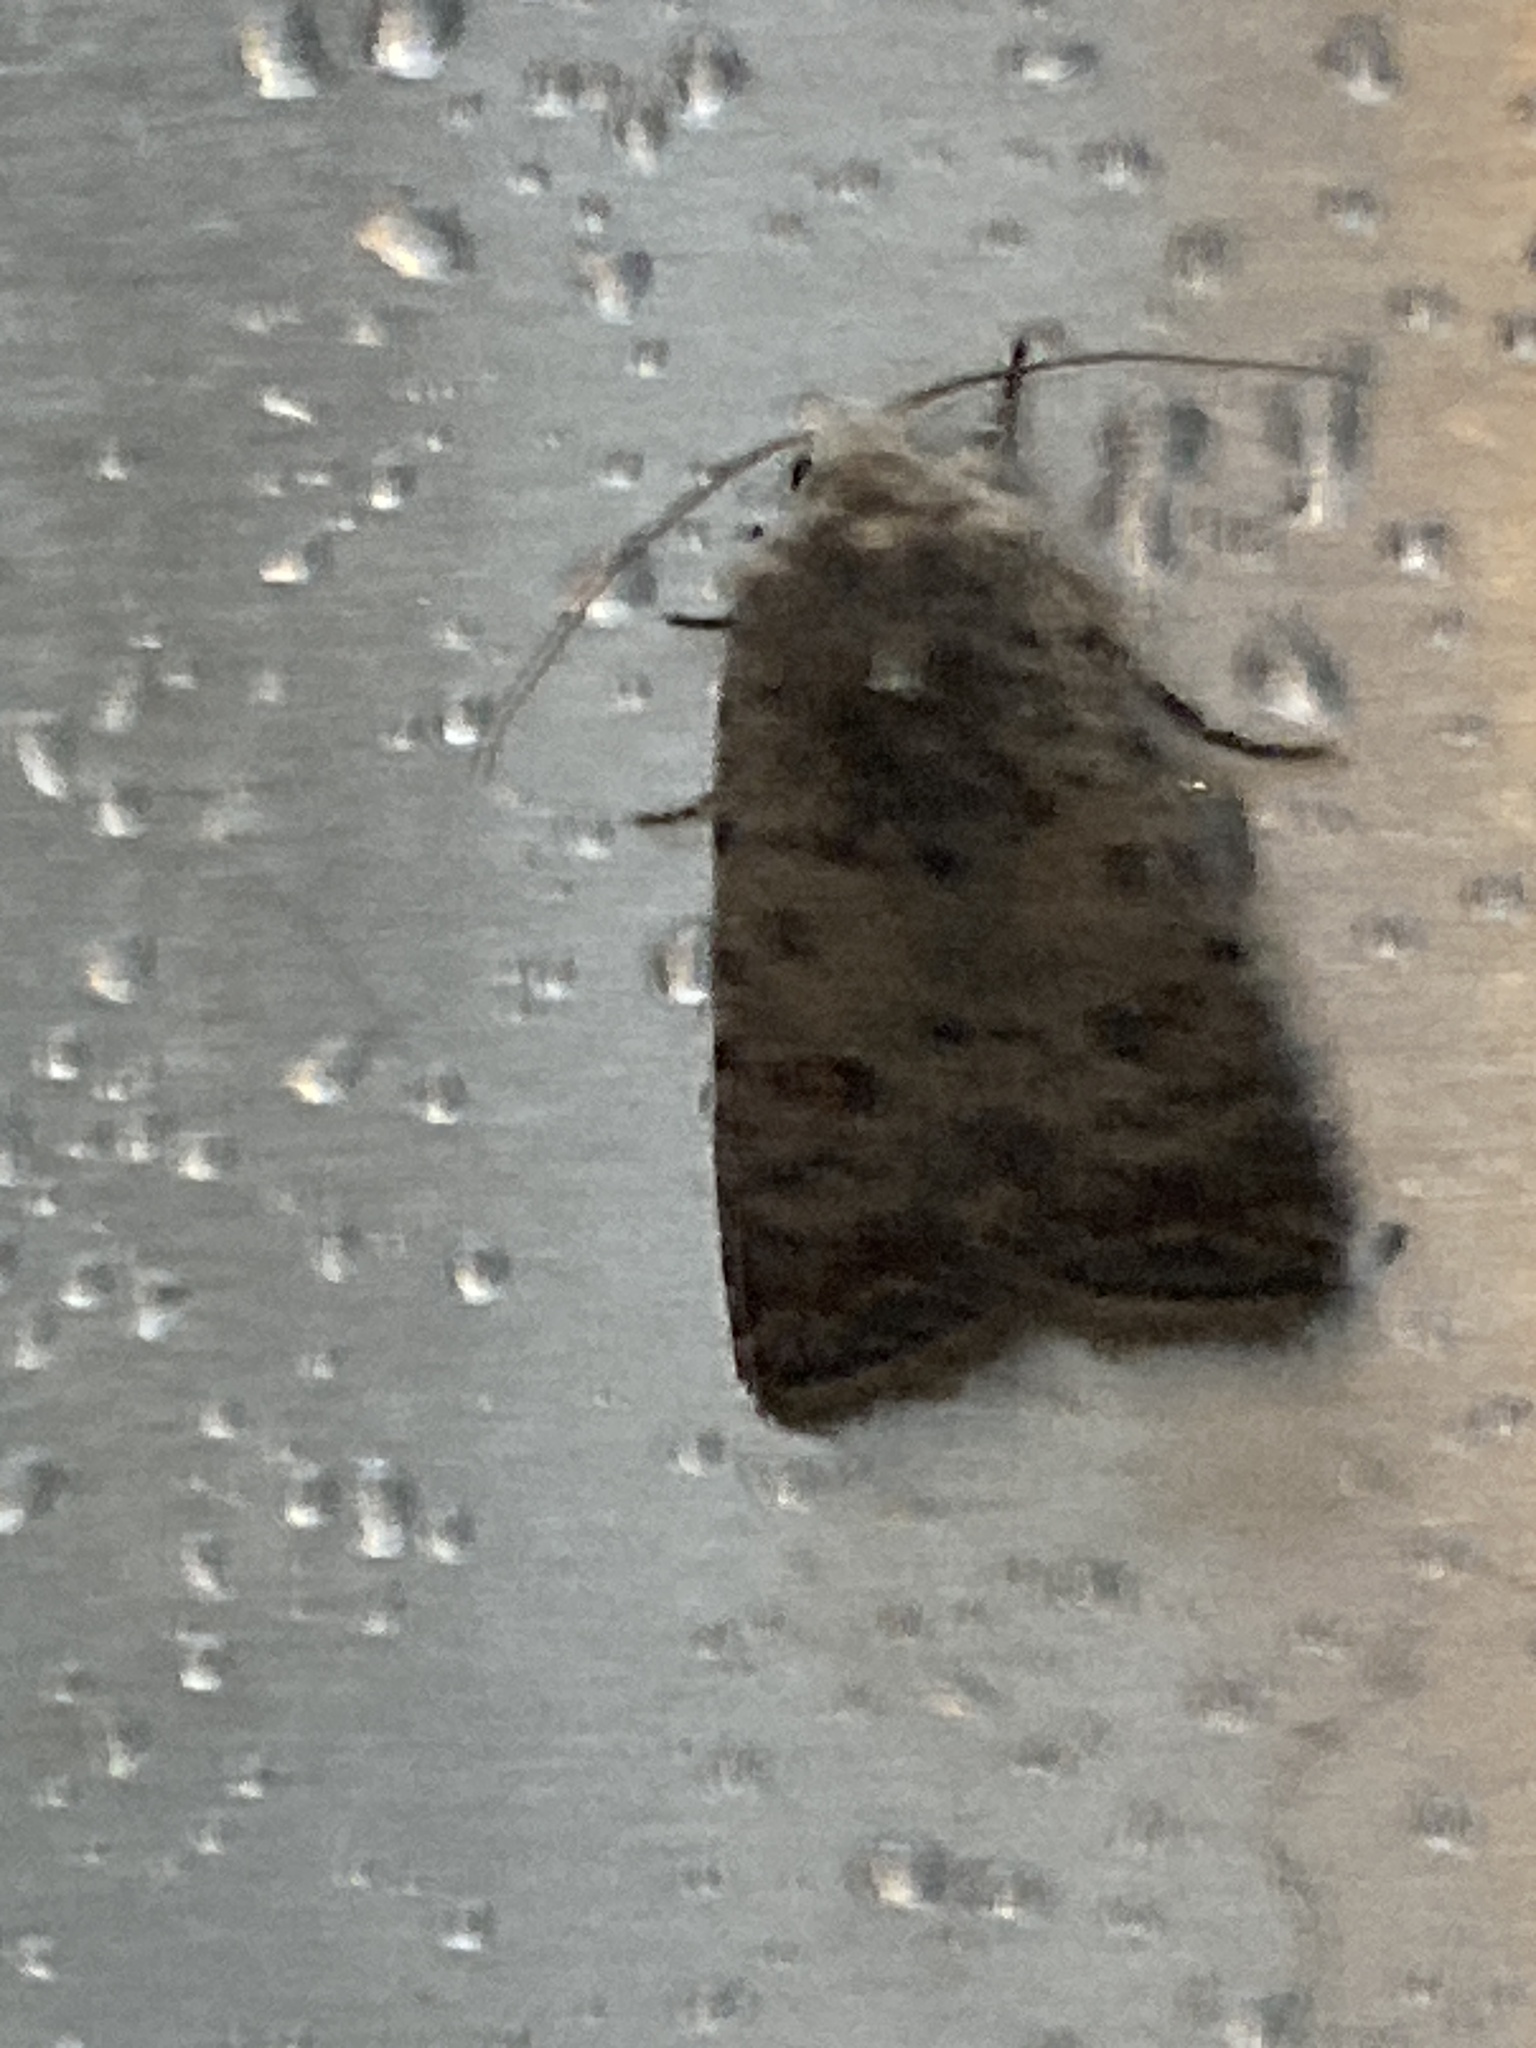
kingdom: Animalia
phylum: Arthropoda
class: Insecta
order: Lepidoptera
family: Noctuidae
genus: Caradrina
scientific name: Caradrina clavipalpis
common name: Pale mottled willow
